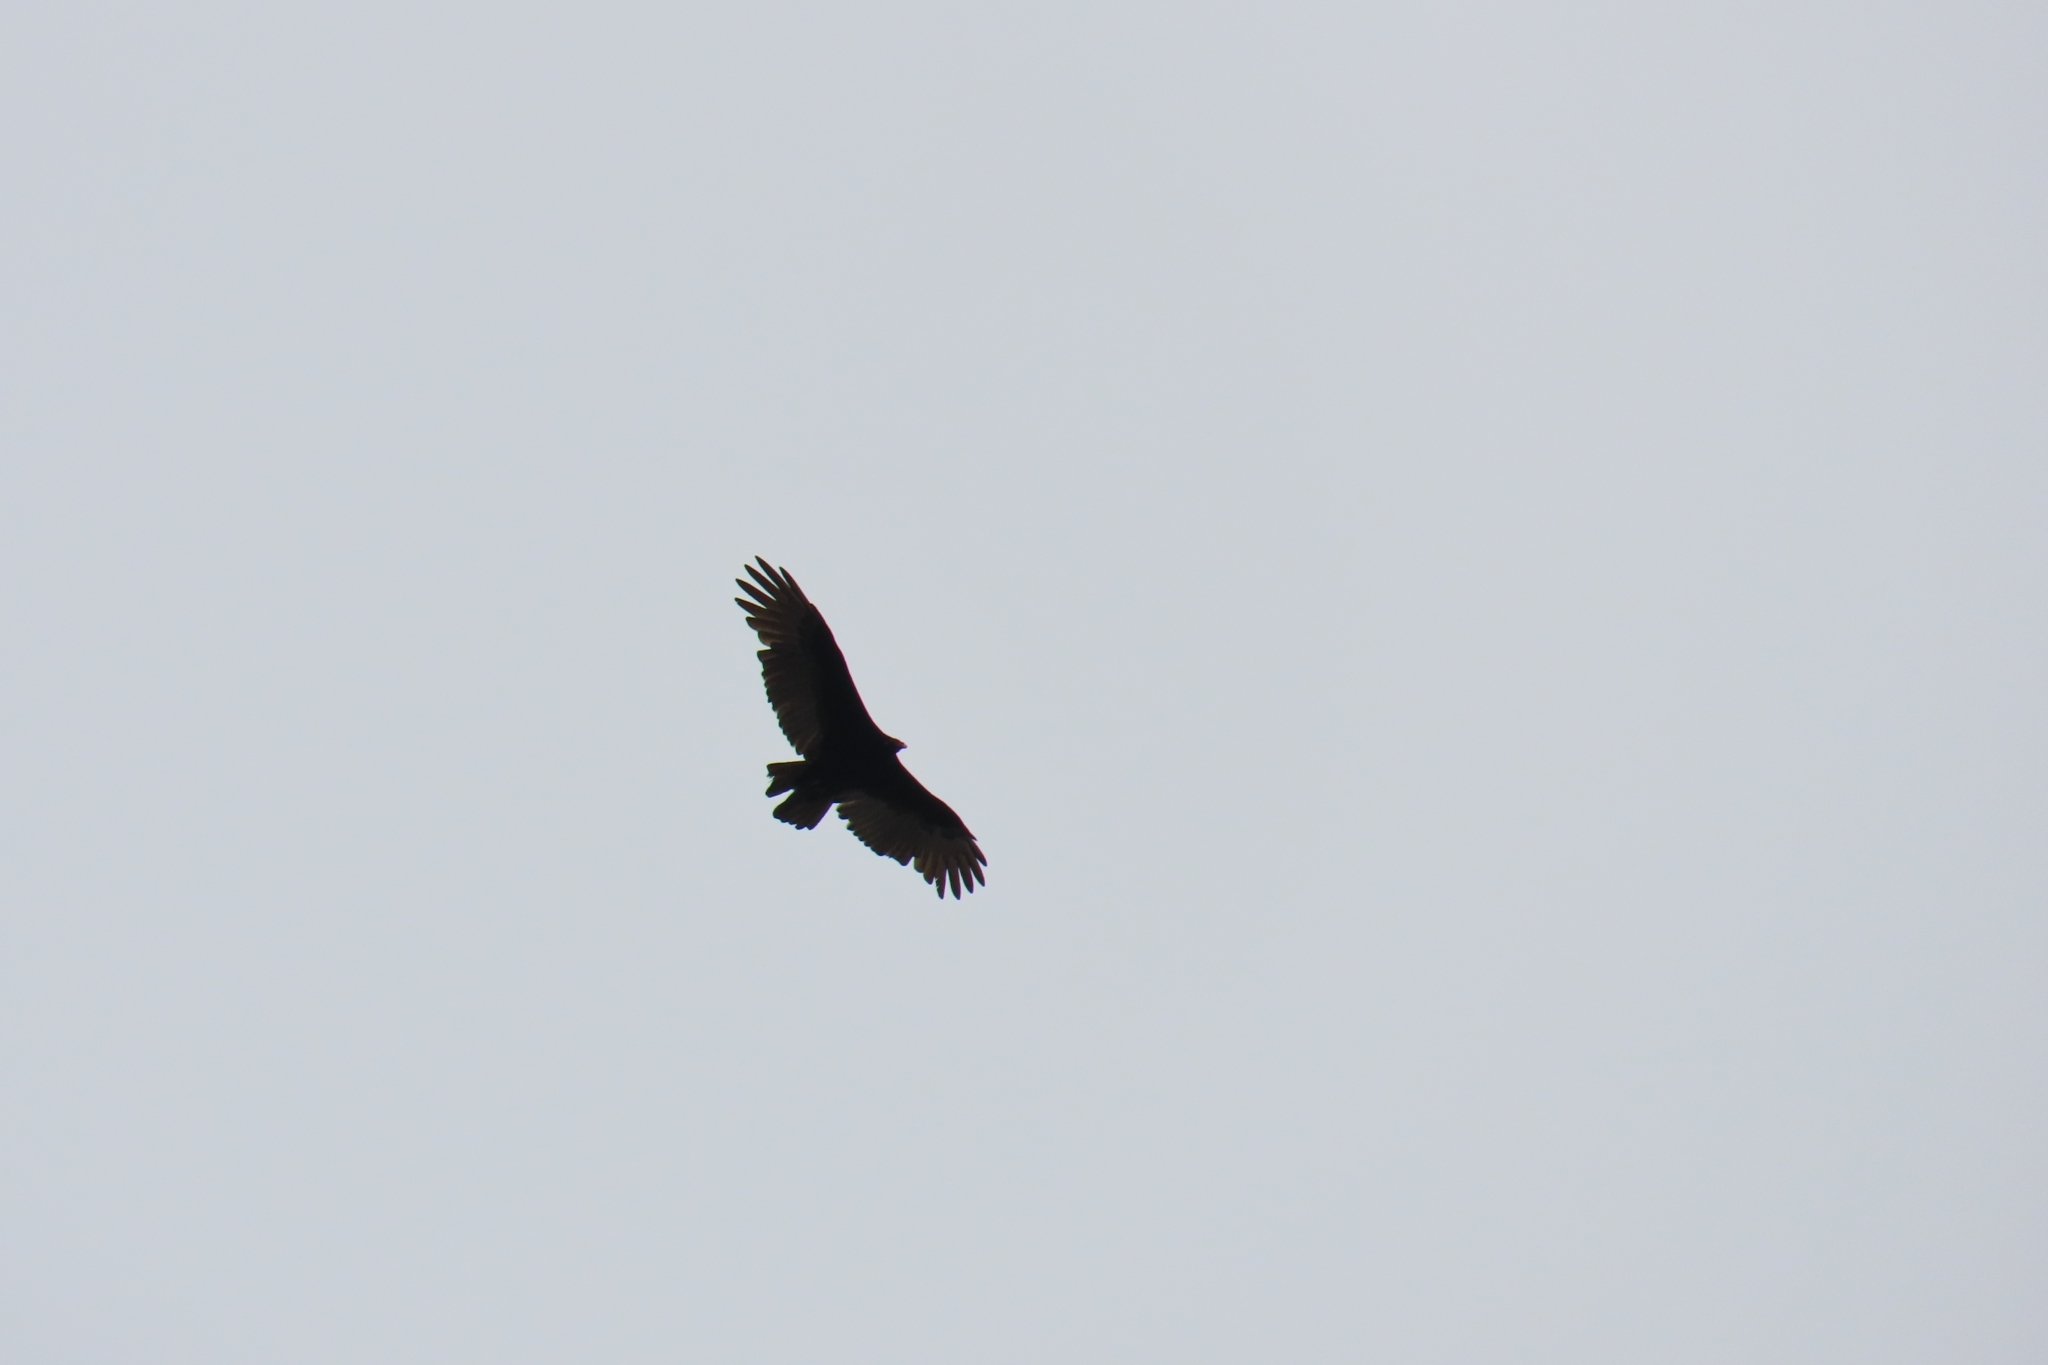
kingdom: Animalia
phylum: Chordata
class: Aves
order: Accipitriformes
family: Cathartidae
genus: Cathartes
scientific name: Cathartes aura
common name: Turkey vulture
